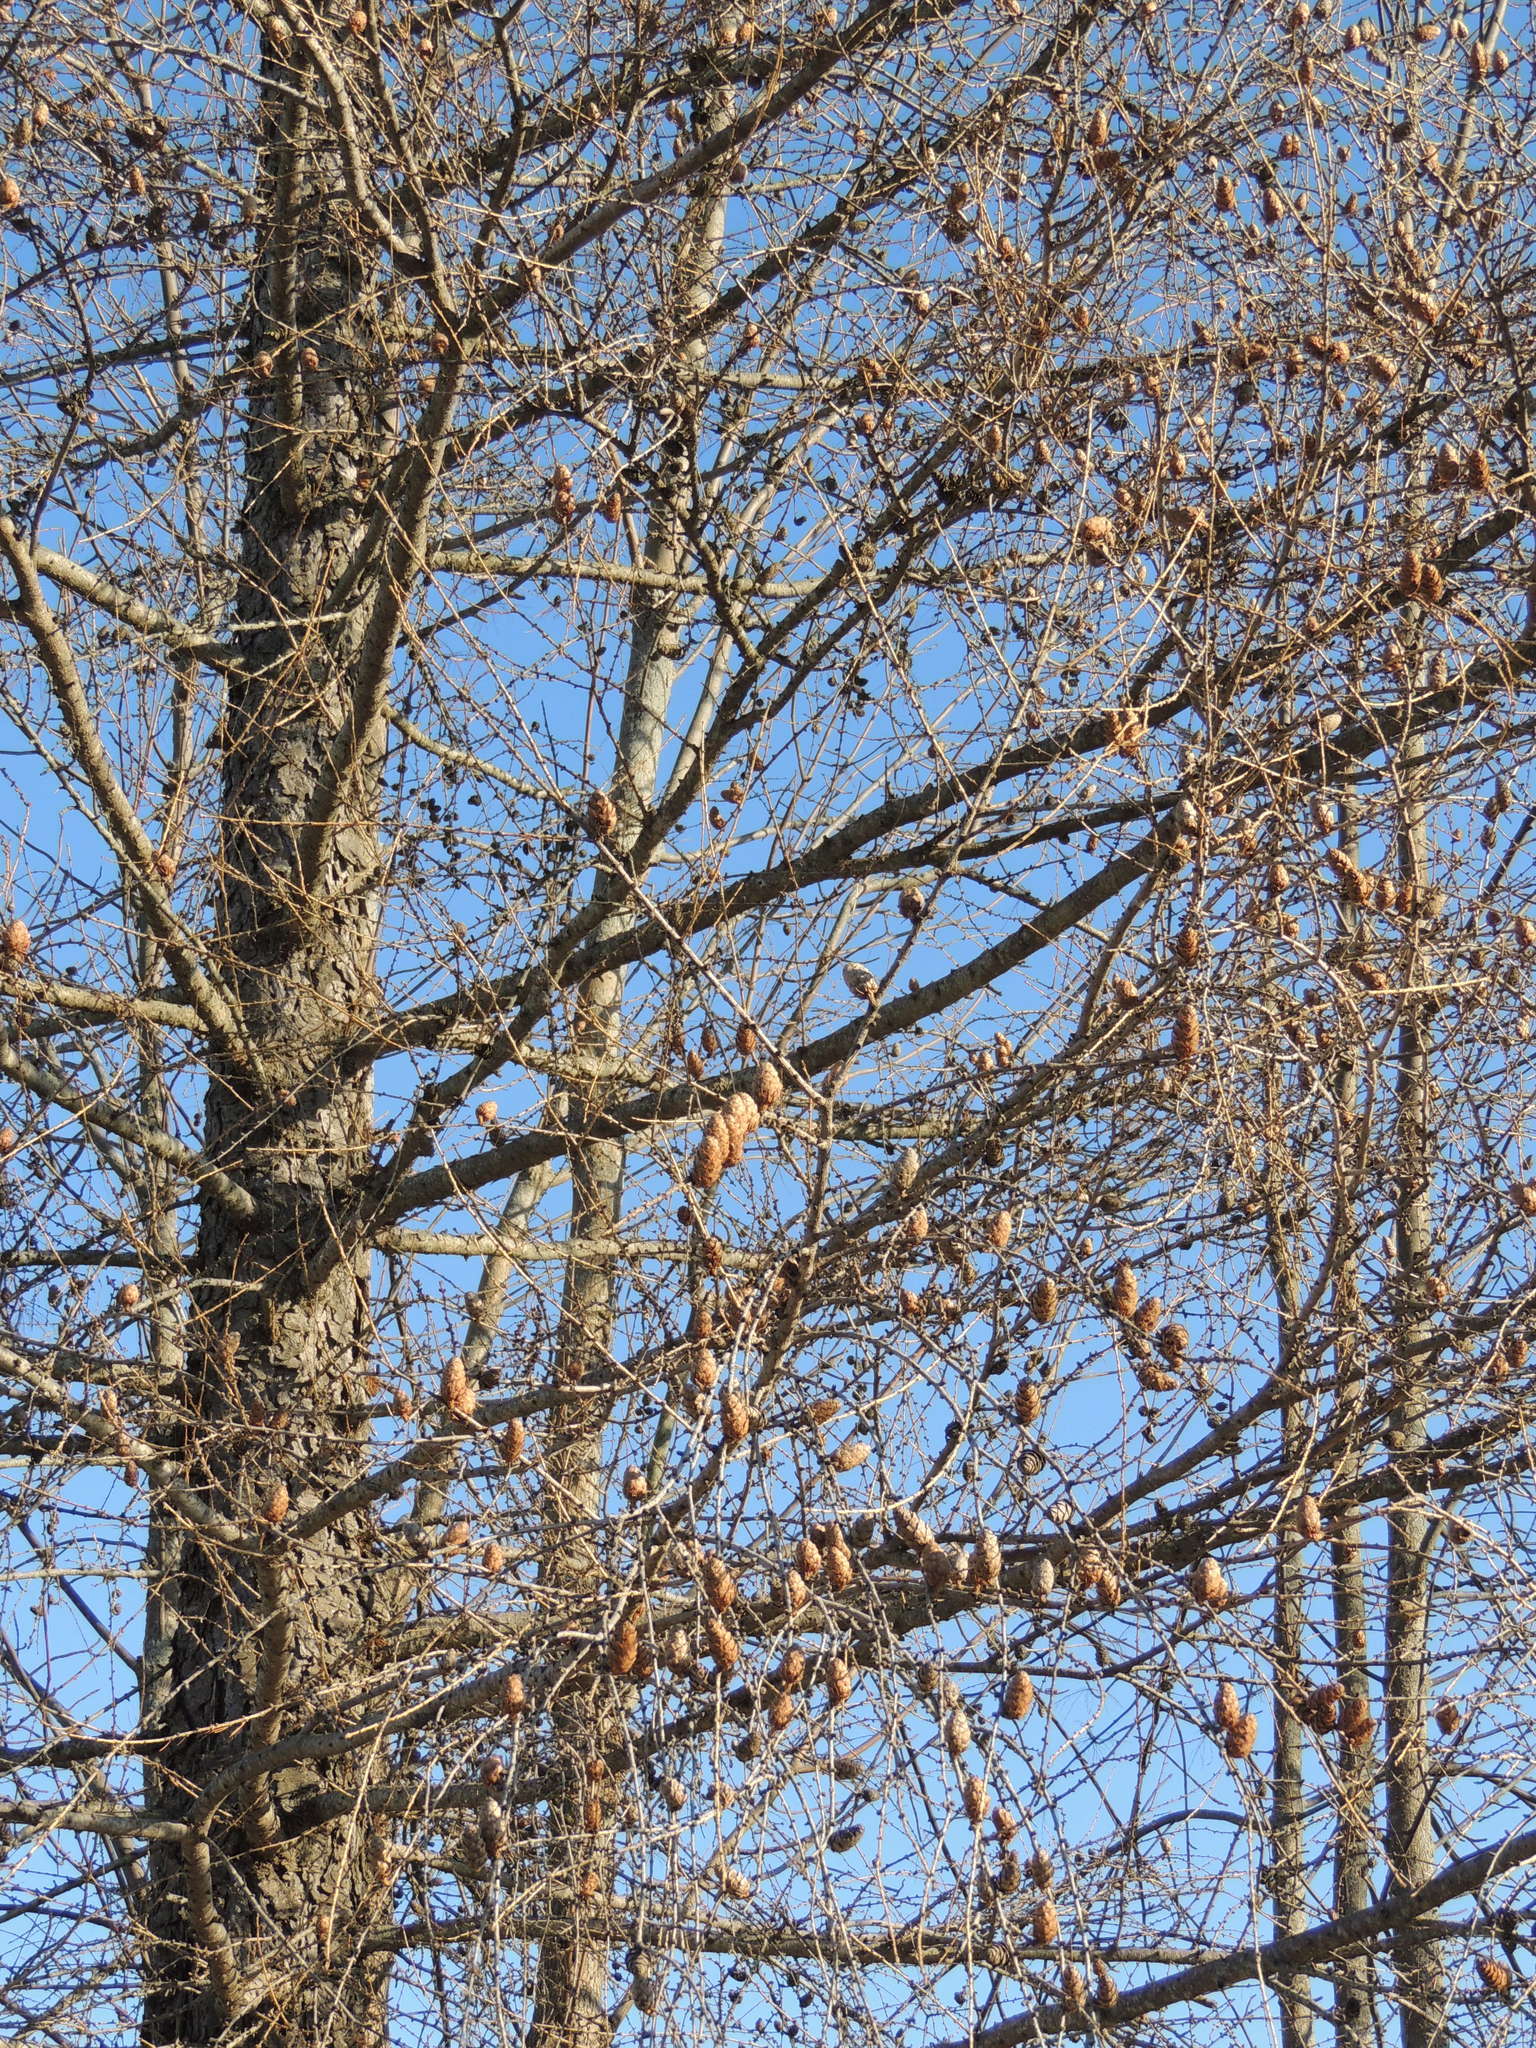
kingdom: Plantae
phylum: Tracheophyta
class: Pinopsida
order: Pinales
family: Pinaceae
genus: Larix
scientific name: Larix decidua
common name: European larch
